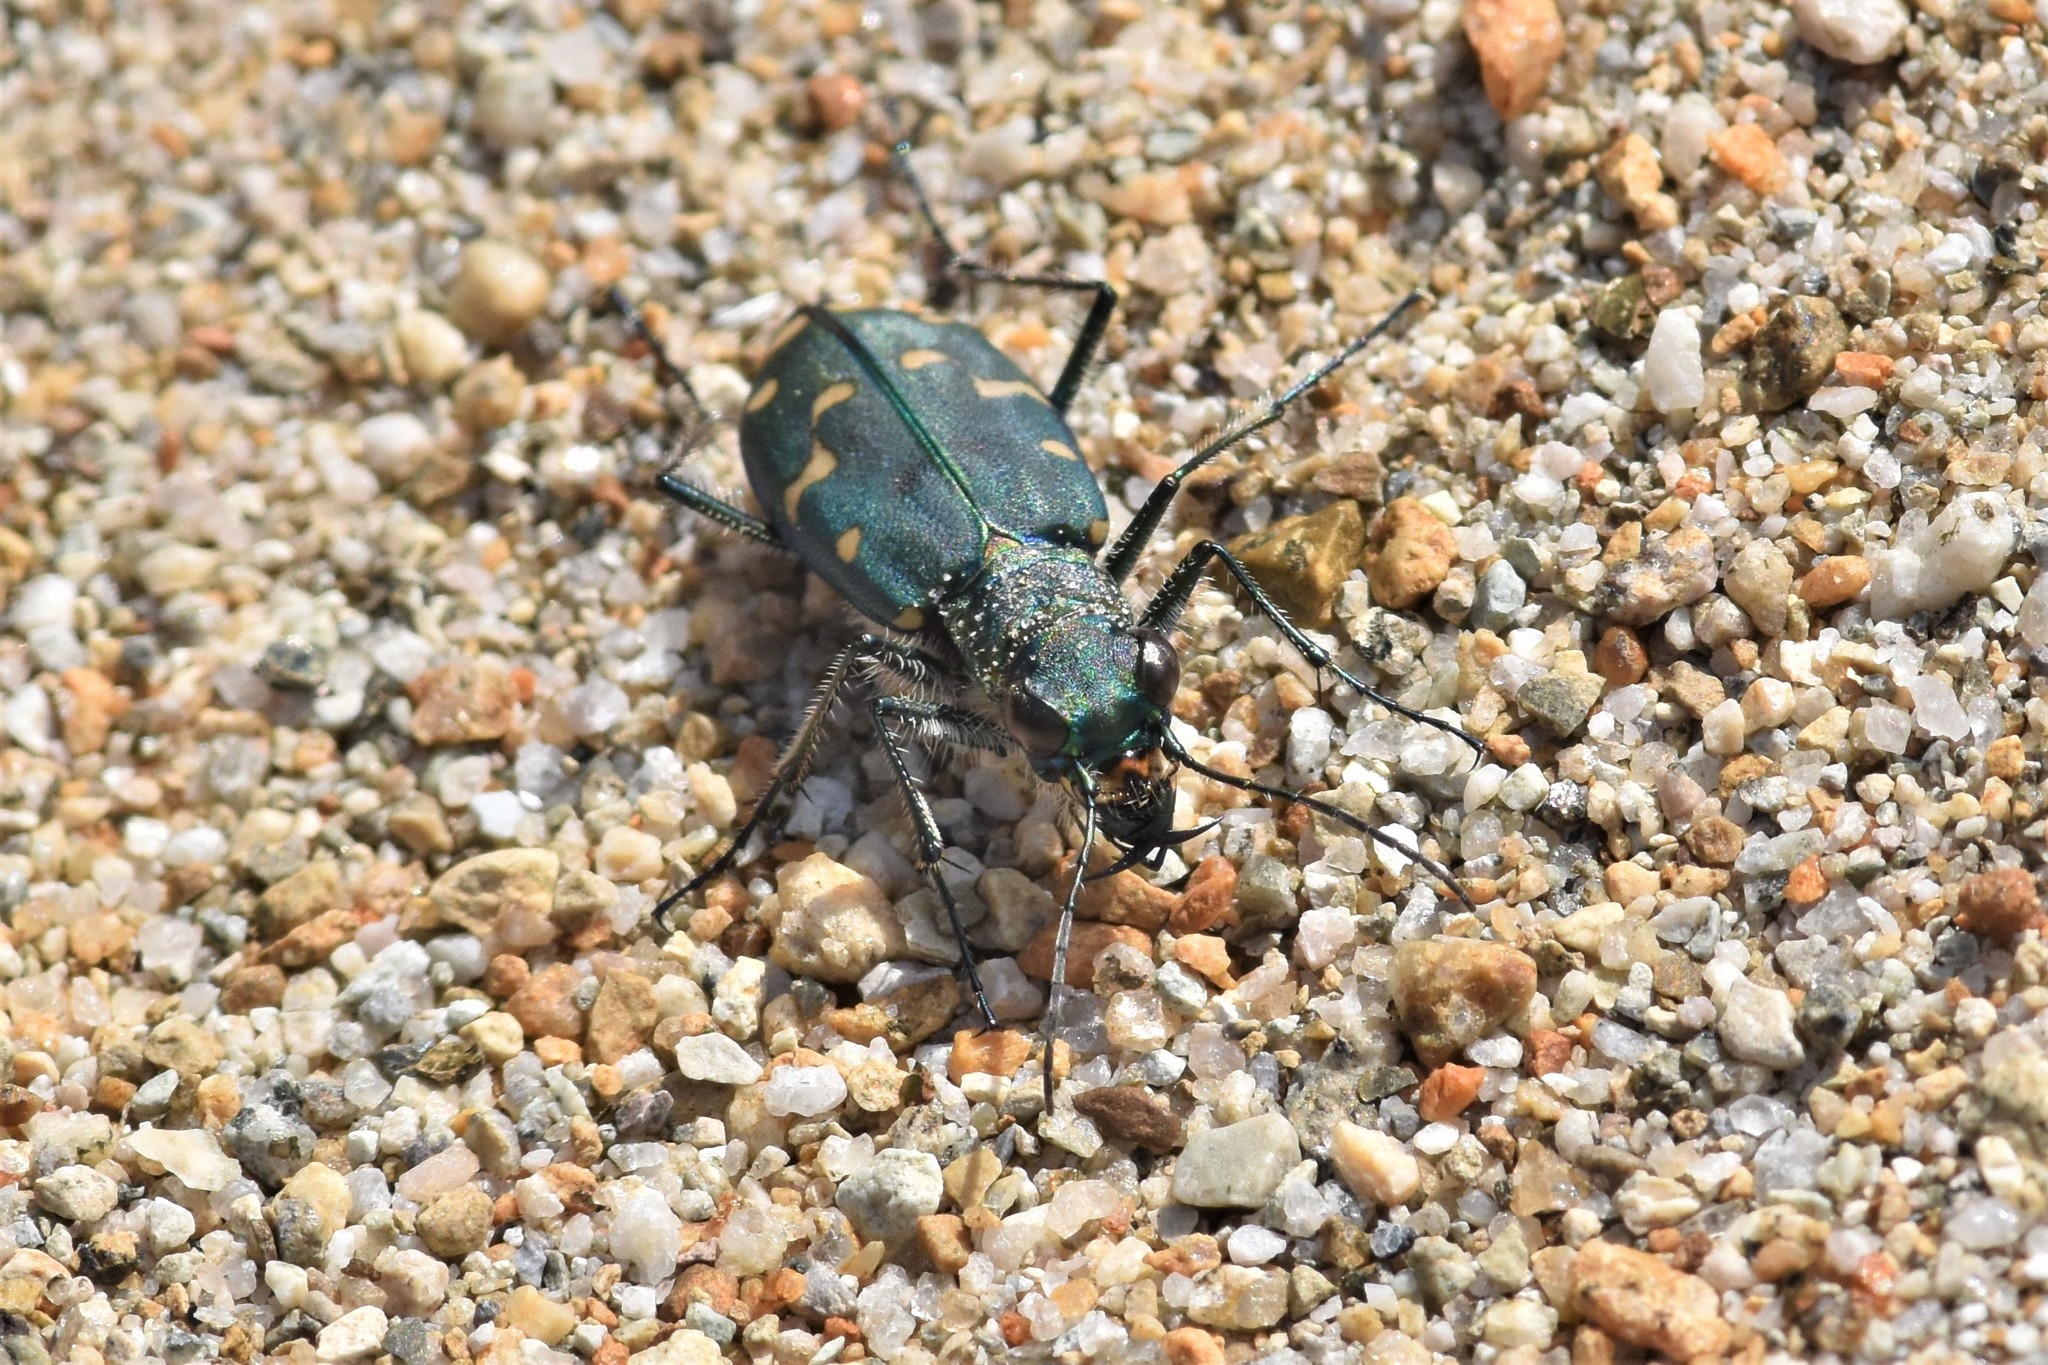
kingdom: Animalia
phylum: Arthropoda
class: Insecta
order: Coleoptera
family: Carabidae
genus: Cicindela
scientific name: Cicindela oregona
